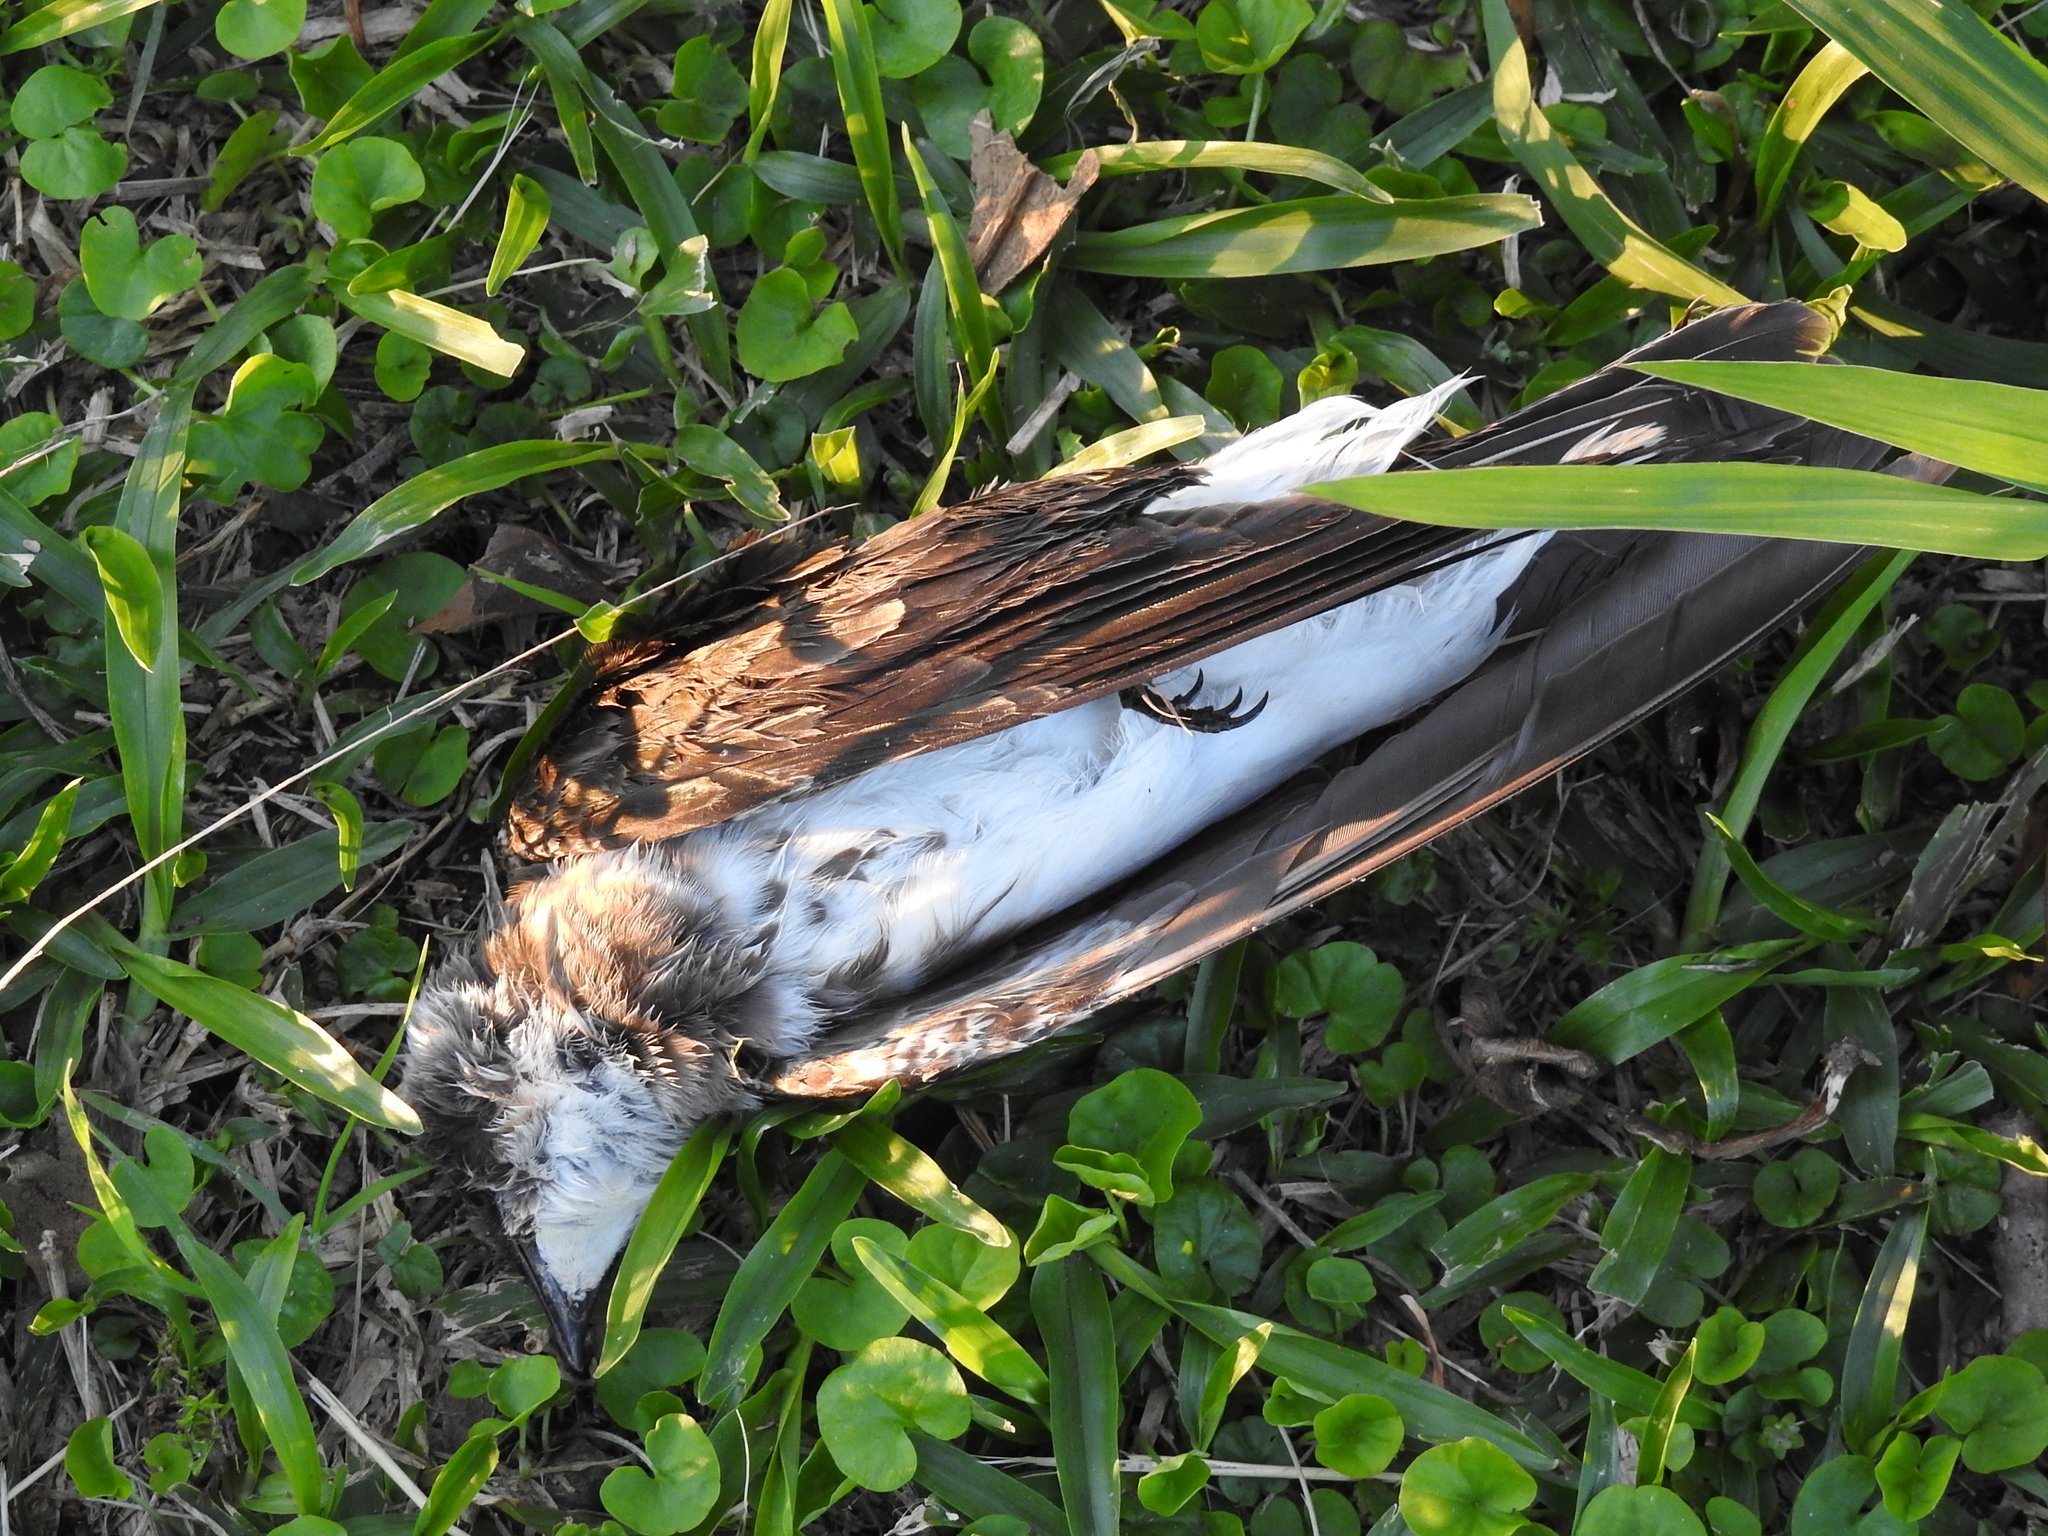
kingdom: Animalia
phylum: Chordata
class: Aves
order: Passeriformes
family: Hirundinidae
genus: Progne
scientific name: Progne tapera
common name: Brown-chested martin
